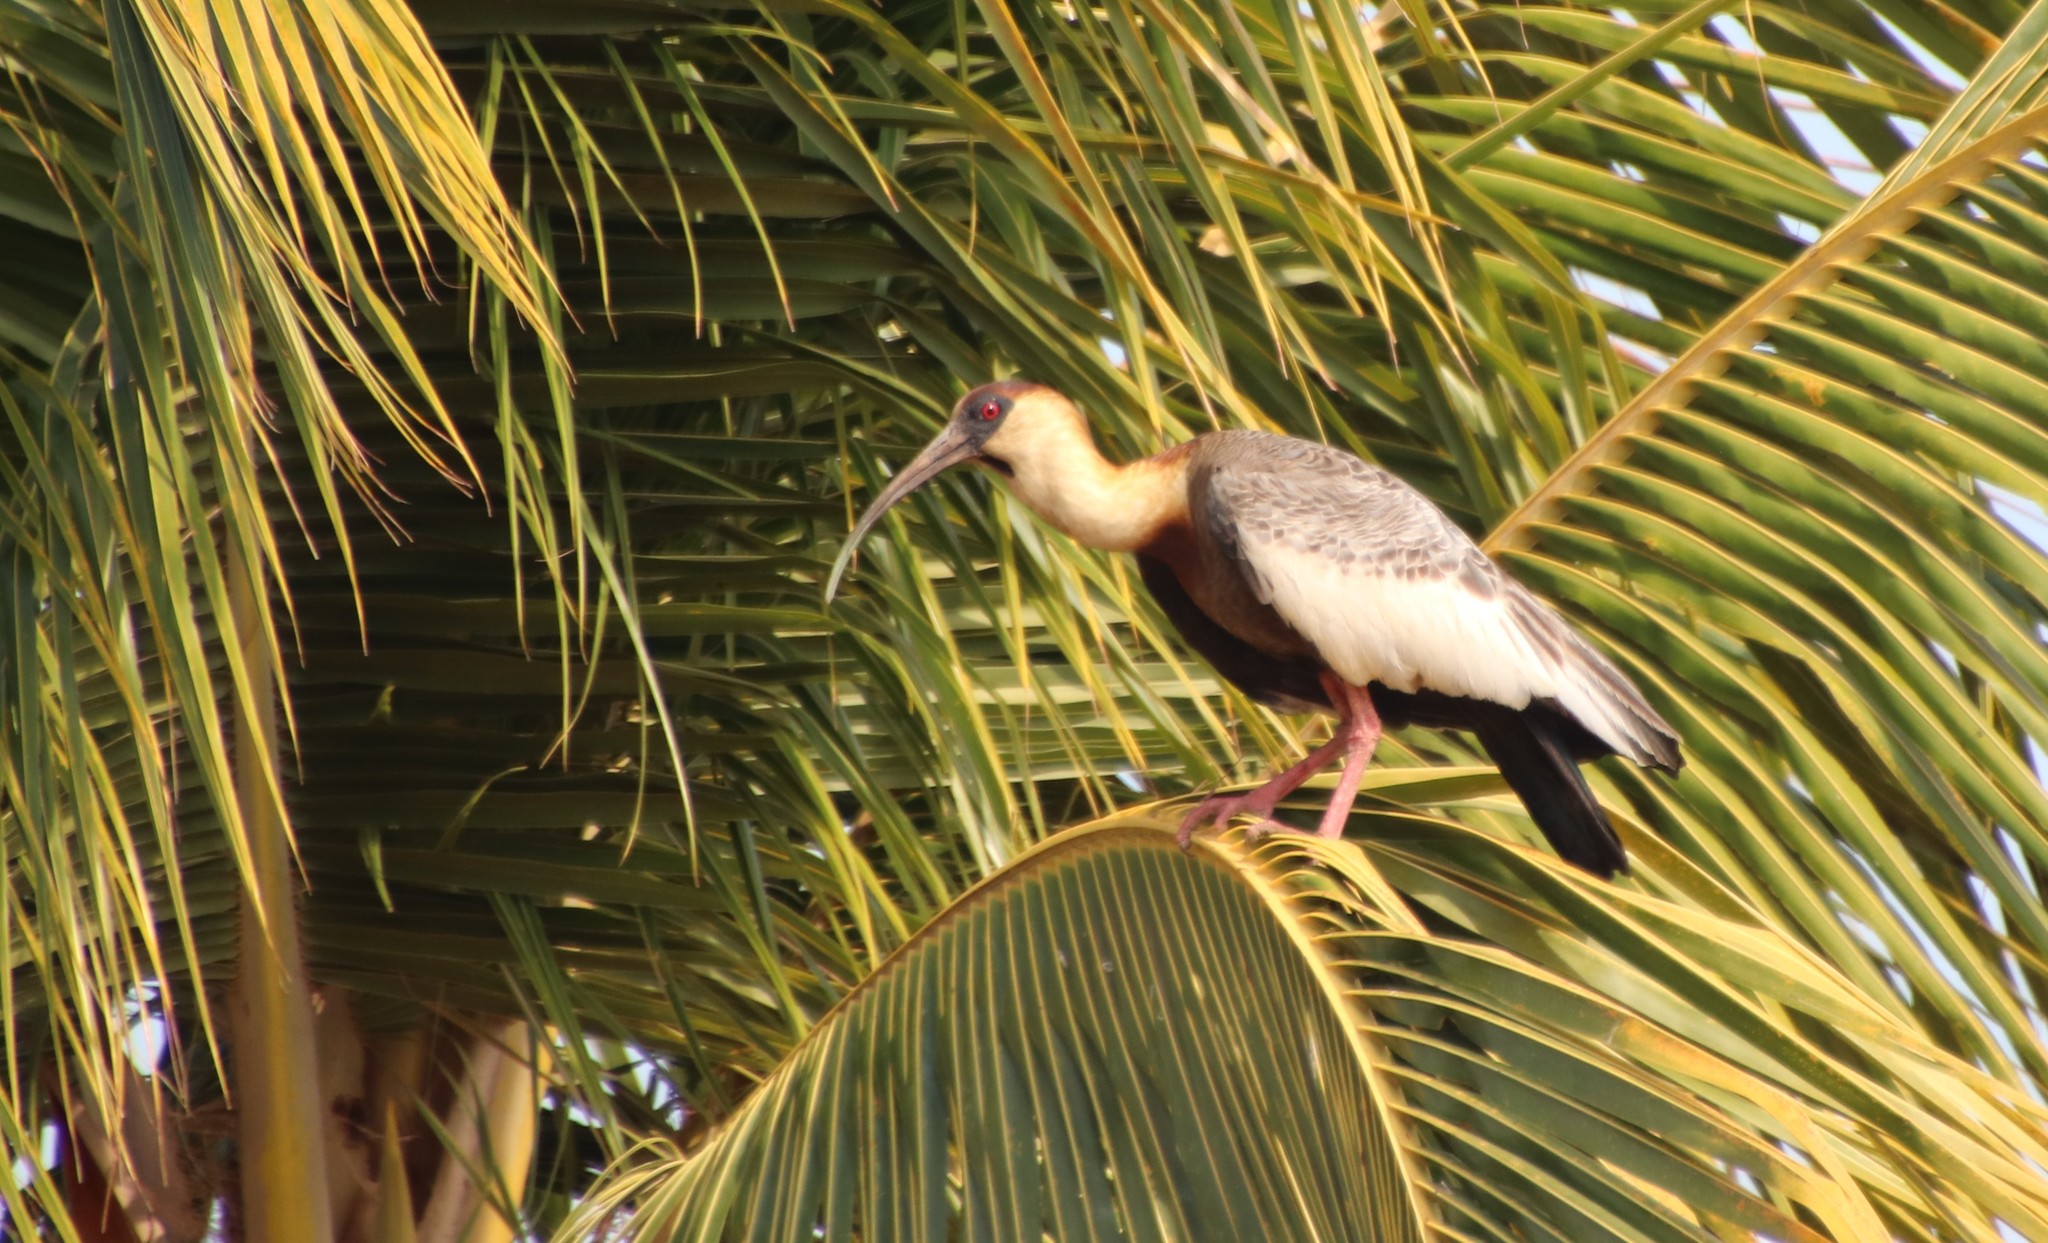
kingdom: Animalia
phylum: Chordata
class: Aves
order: Pelecaniformes
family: Threskiornithidae
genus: Theristicus
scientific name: Theristicus caudatus
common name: Buff-necked ibis
